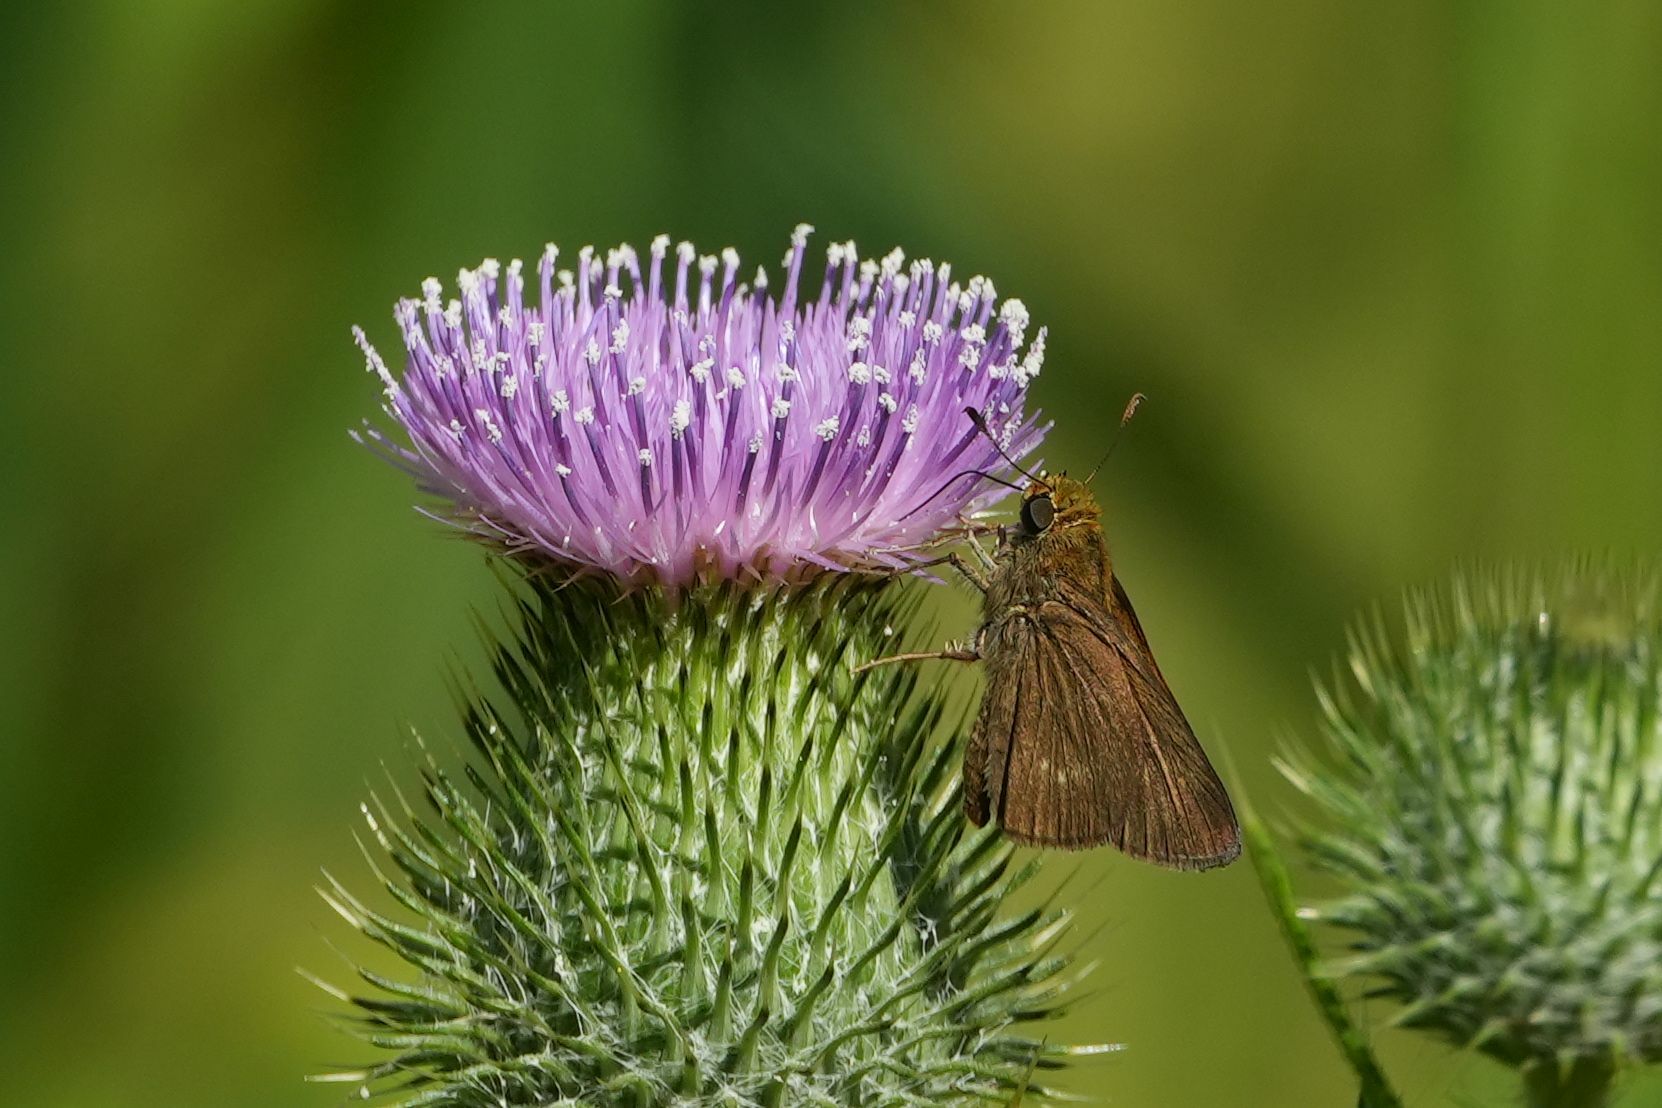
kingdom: Animalia
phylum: Arthropoda
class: Insecta
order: Lepidoptera
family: Hesperiidae
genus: Euphyes
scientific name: Euphyes vestris
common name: Dun skipper
